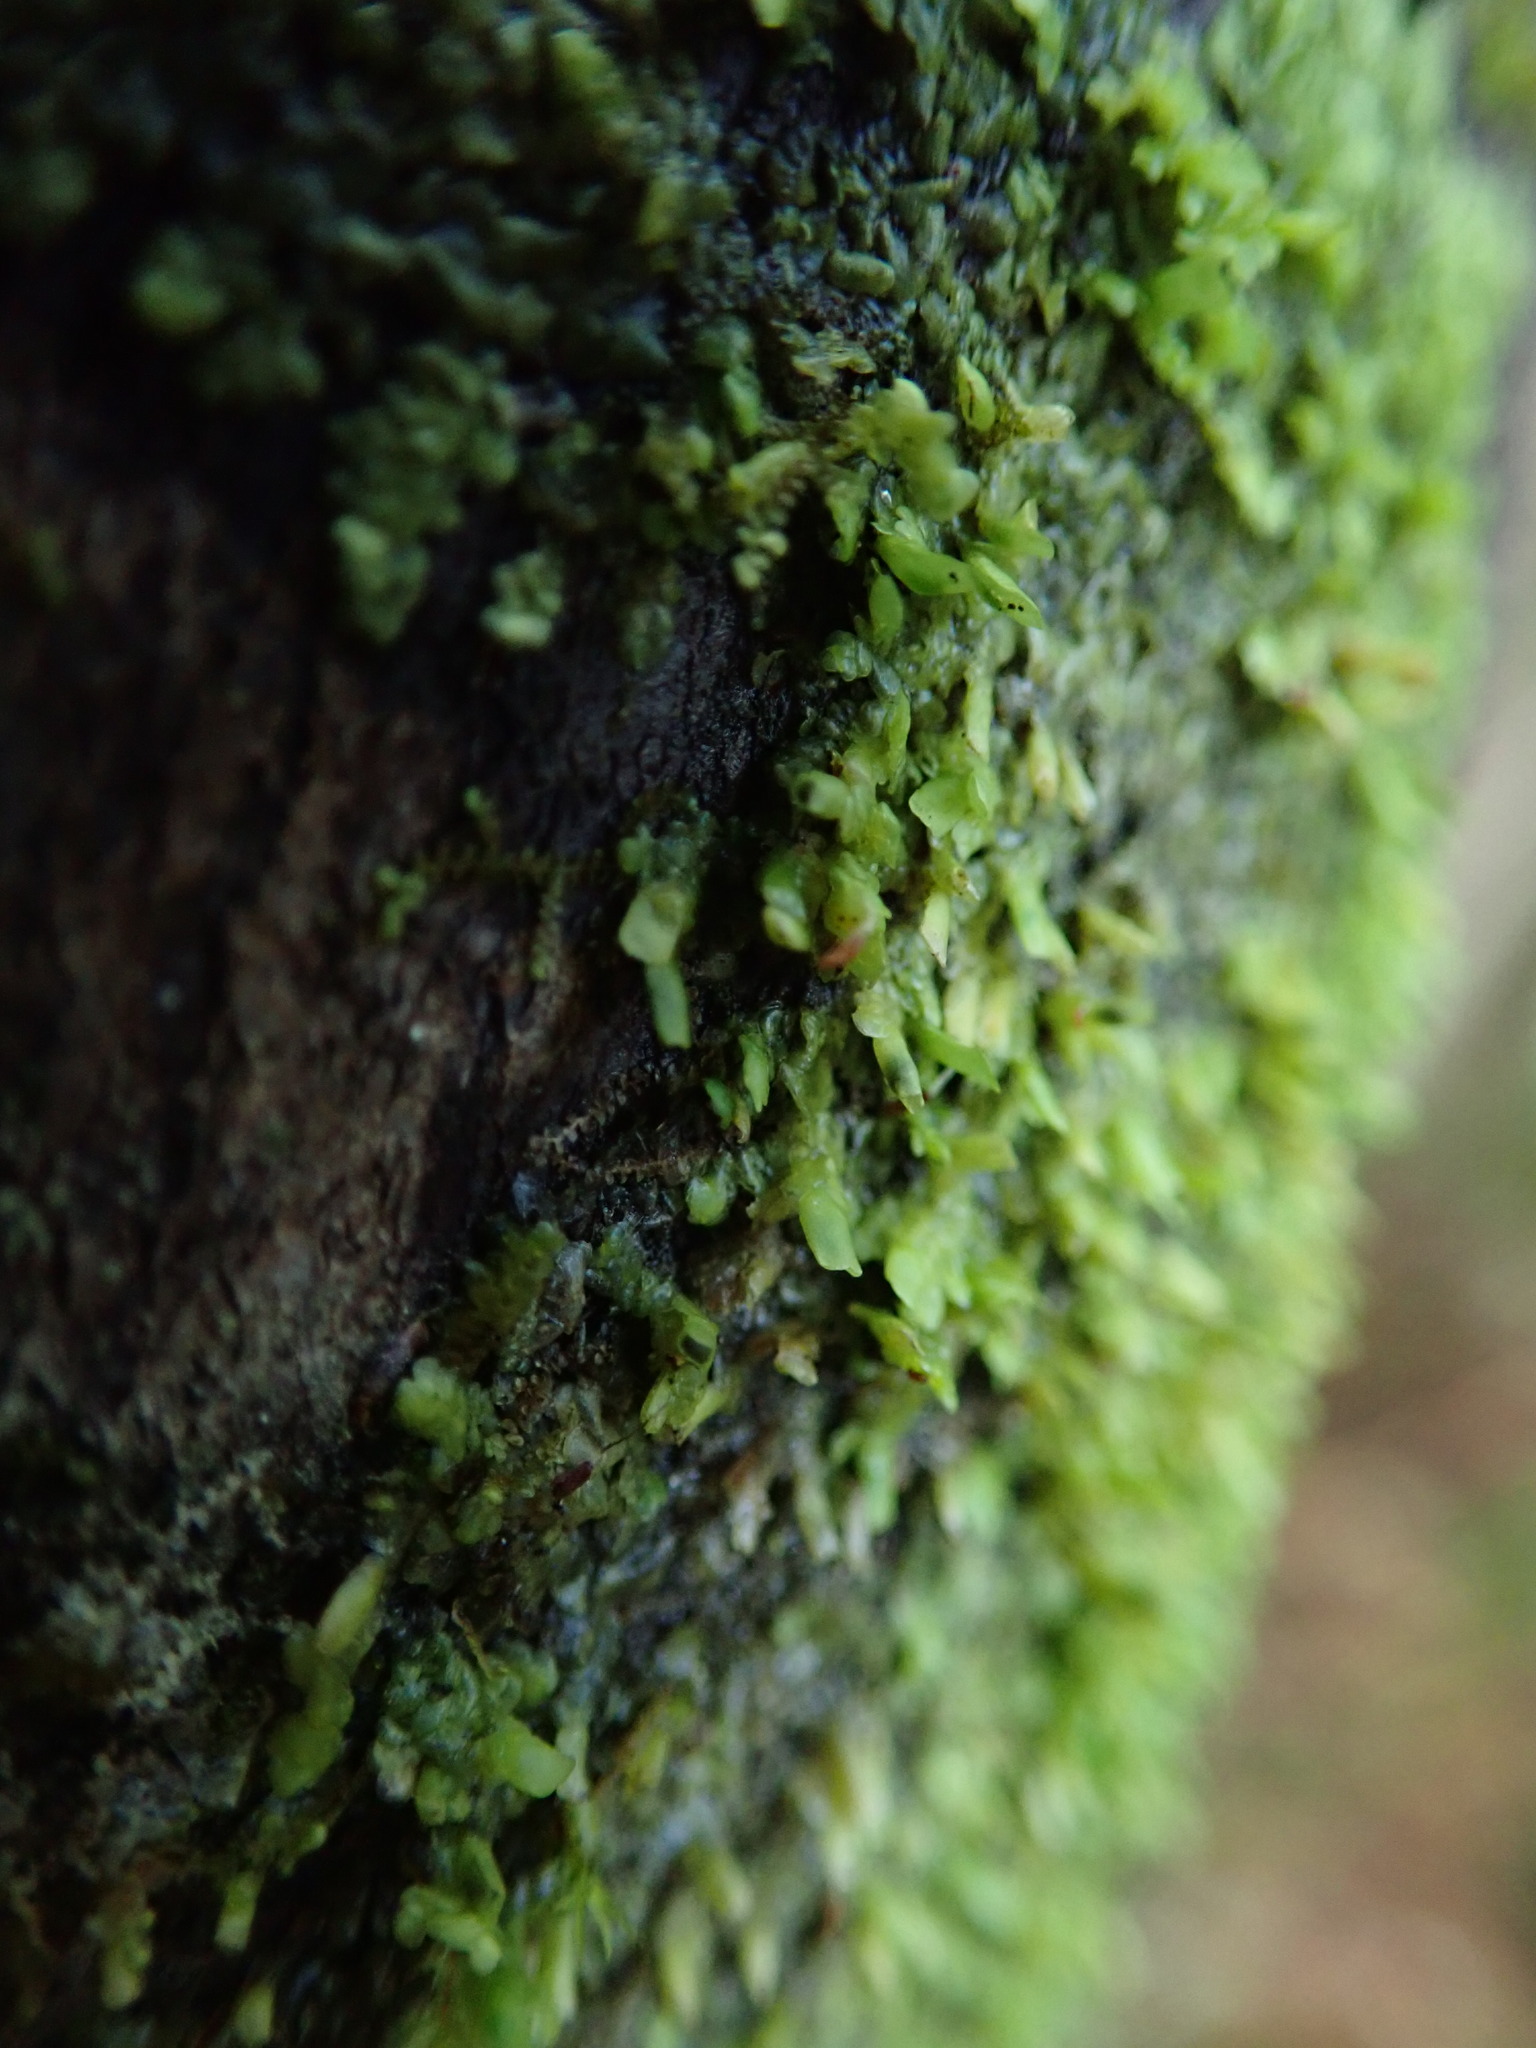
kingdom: Plantae
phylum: Marchantiophyta
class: Jungermanniopsida
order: Porellales
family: Radulaceae
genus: Radula
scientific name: Radula complanata
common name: Flat-leaved scalewort
